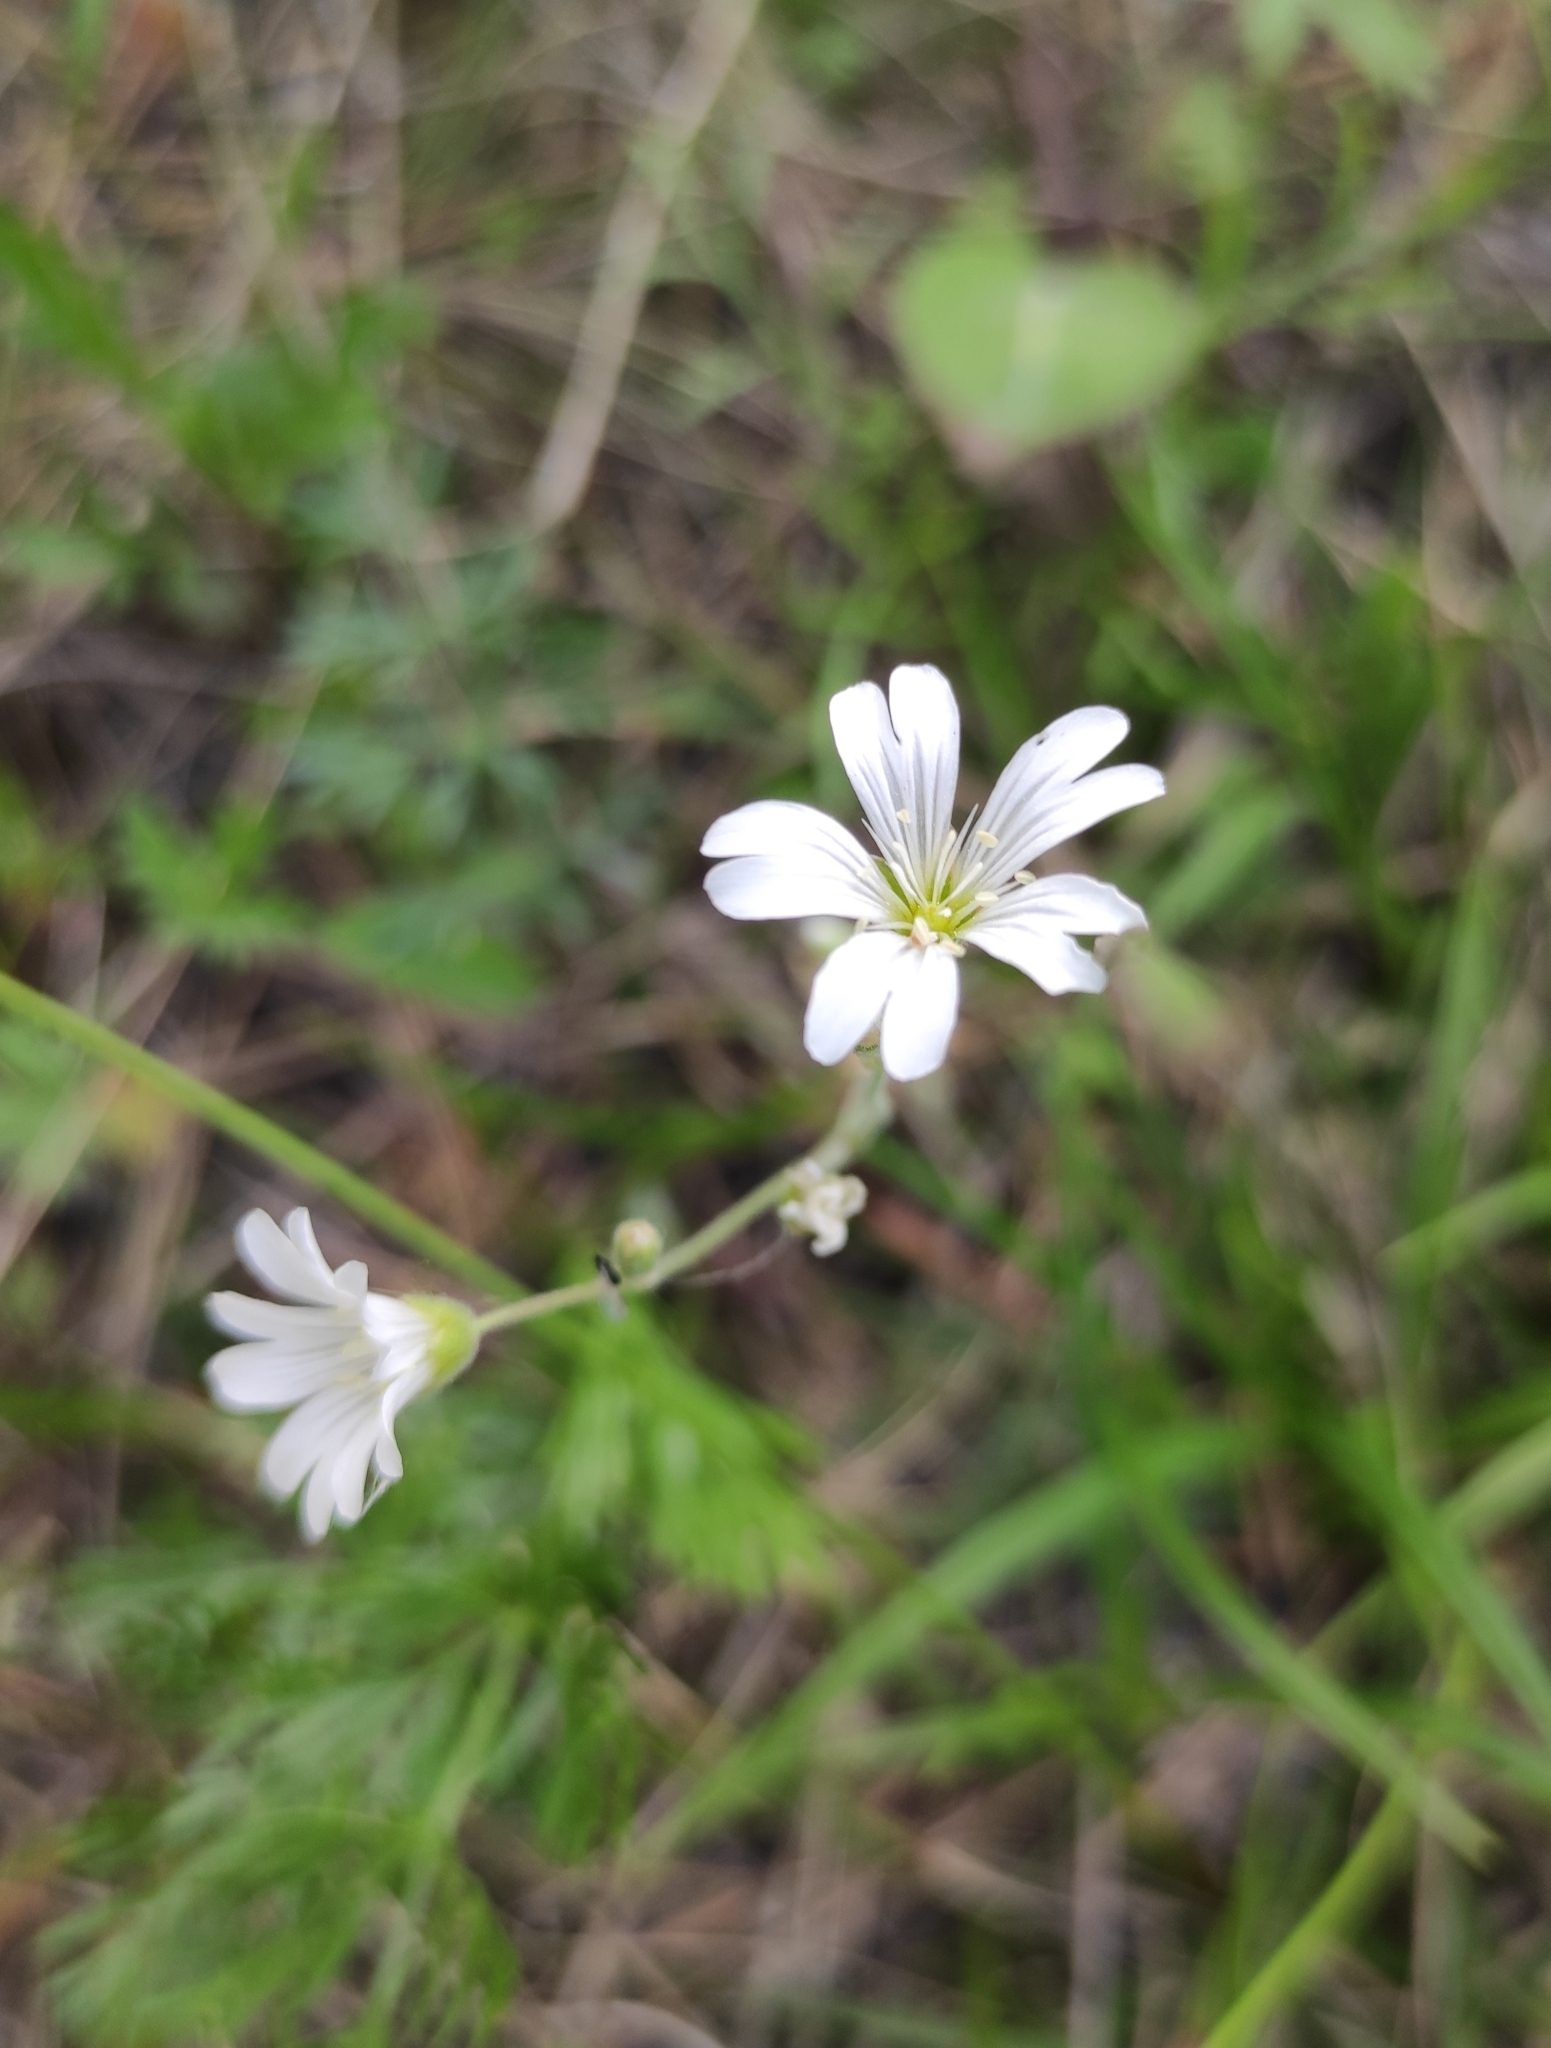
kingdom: Plantae
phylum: Tracheophyta
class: Magnoliopsida
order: Caryophyllales
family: Caryophyllaceae
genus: Cerastium
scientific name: Cerastium arvense
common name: Field mouse-ear
